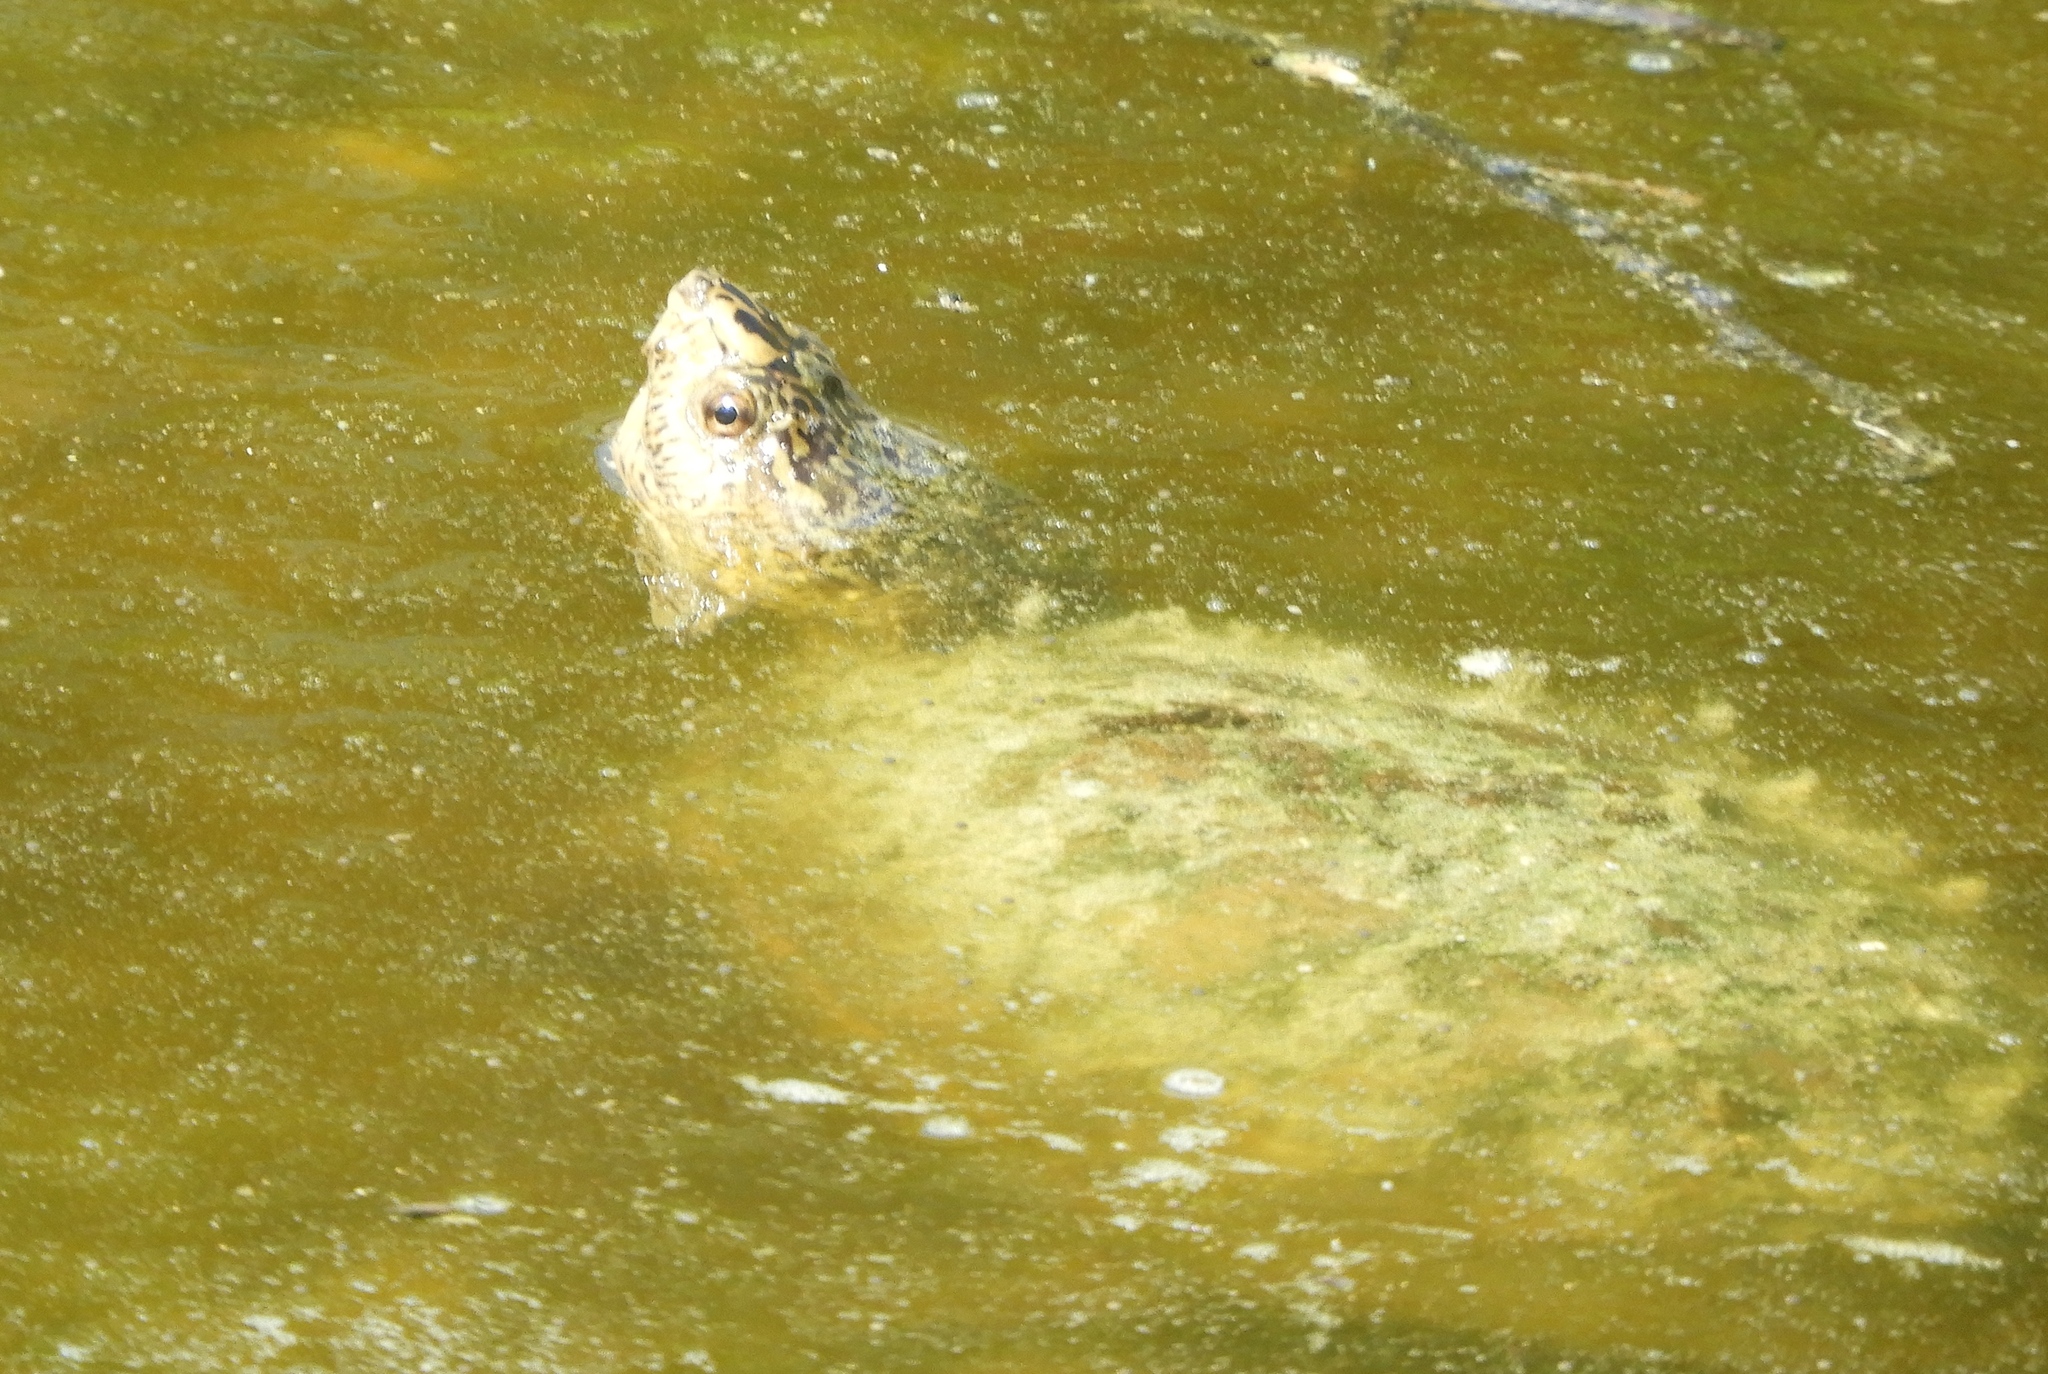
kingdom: Animalia
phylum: Chordata
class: Testudines
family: Kinosternidae
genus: Kinosternon
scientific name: Kinosternon integrum
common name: Mexican mud turtle
